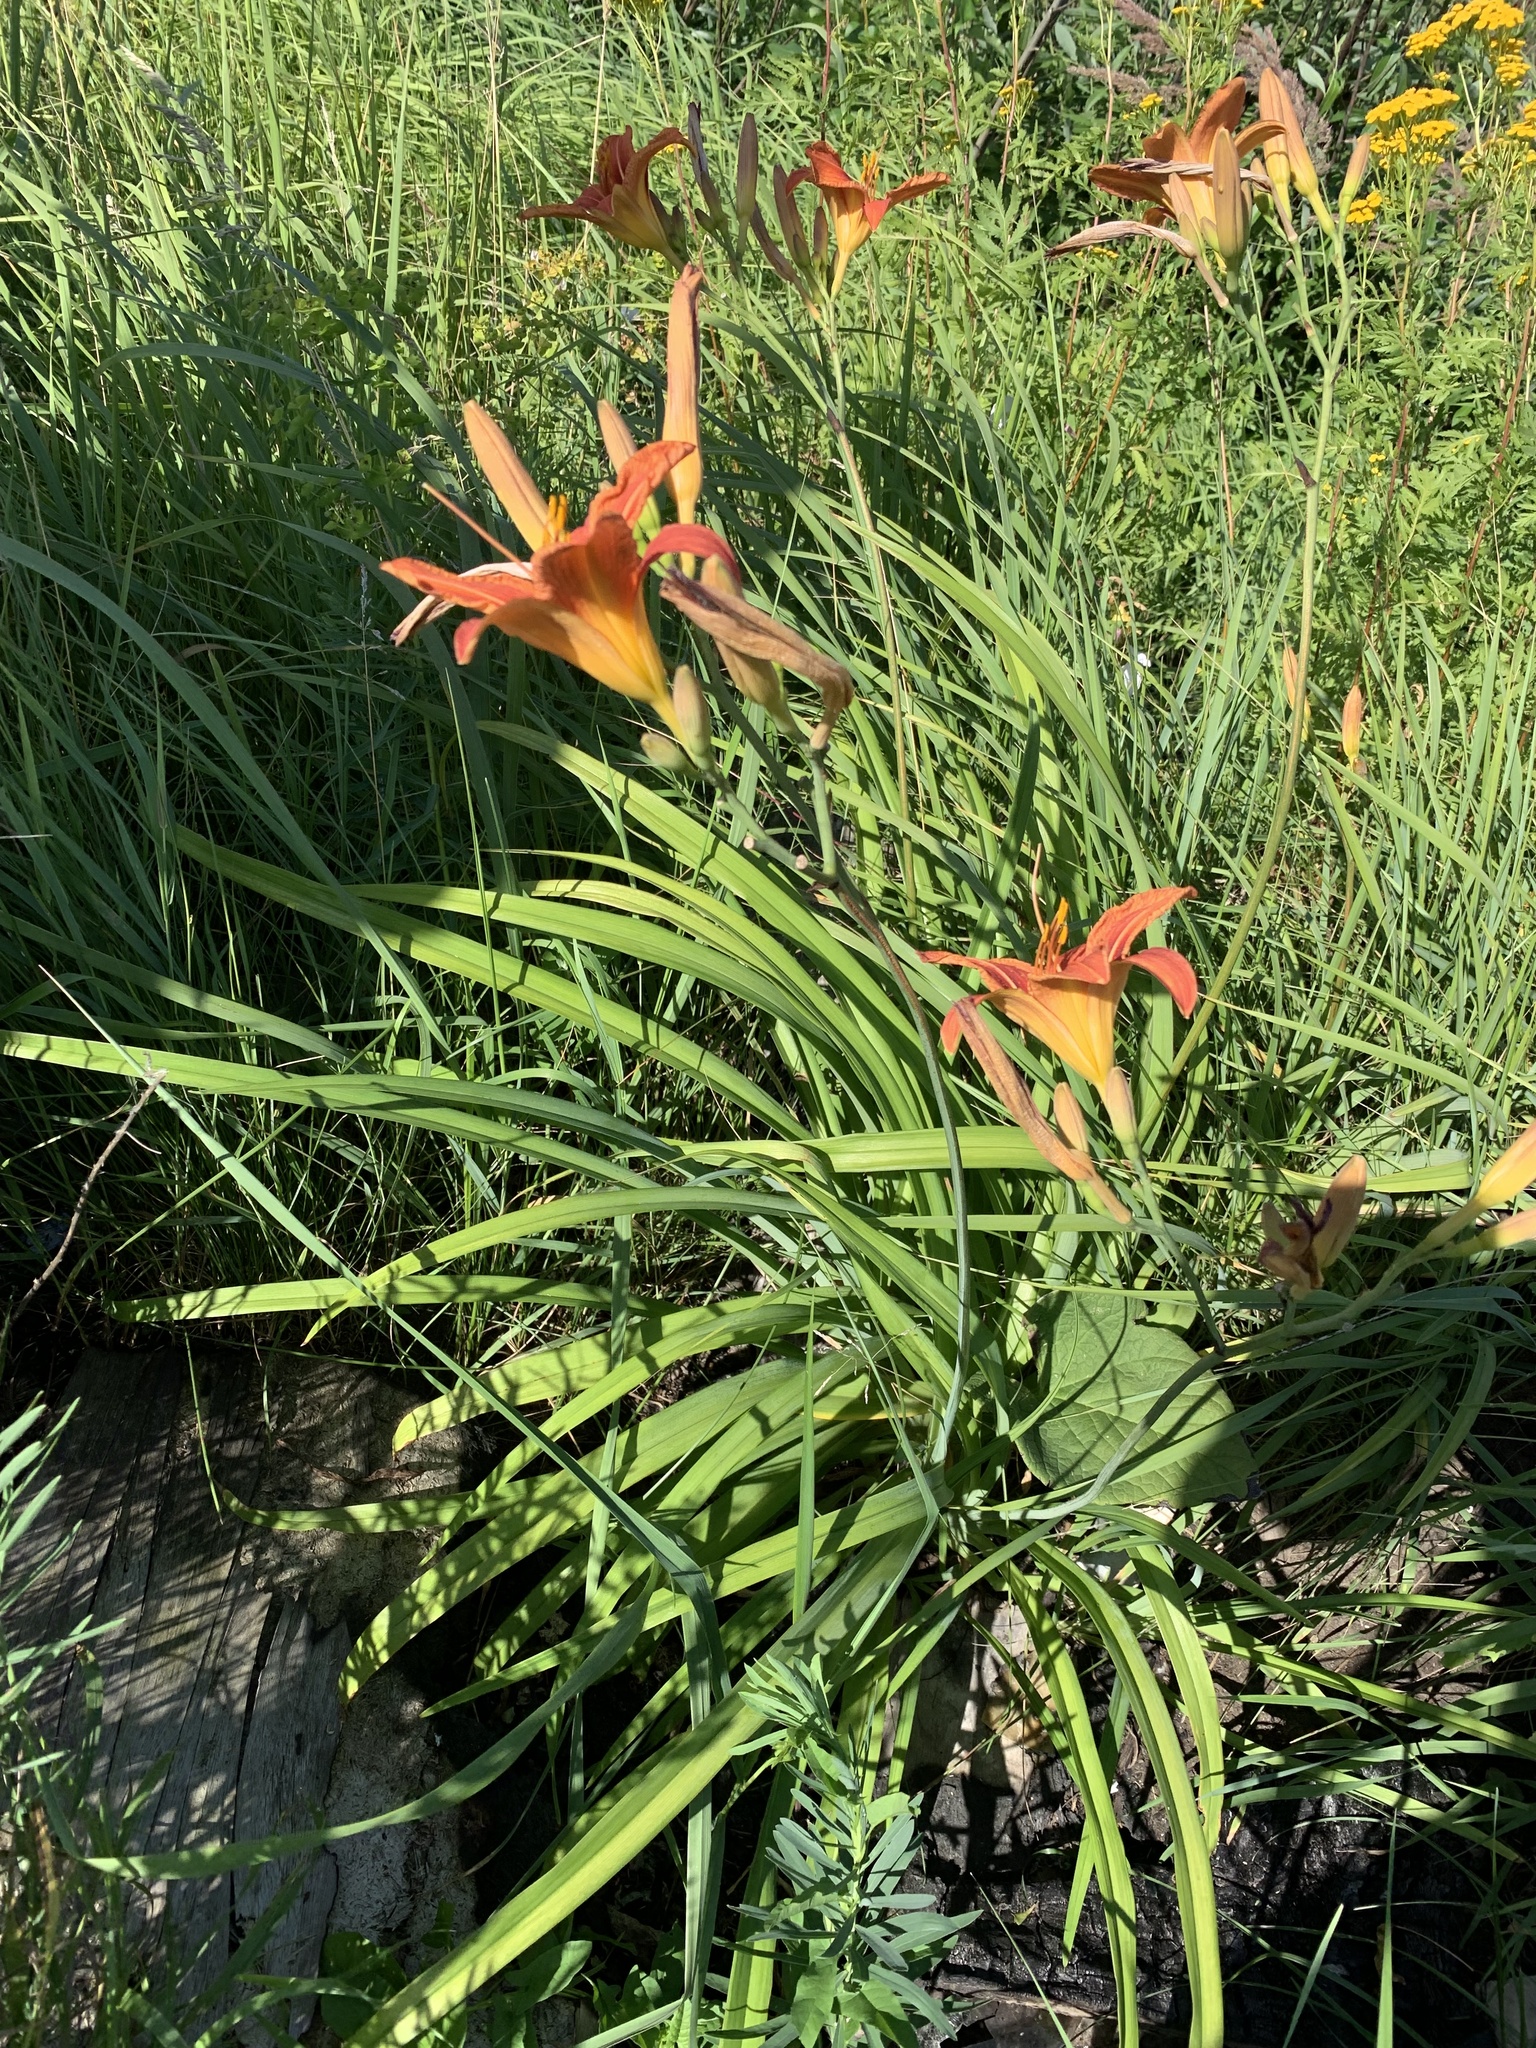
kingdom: Plantae
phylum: Tracheophyta
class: Liliopsida
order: Asparagales
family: Asphodelaceae
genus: Hemerocallis
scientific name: Hemerocallis fulva
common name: Orange day-lily
